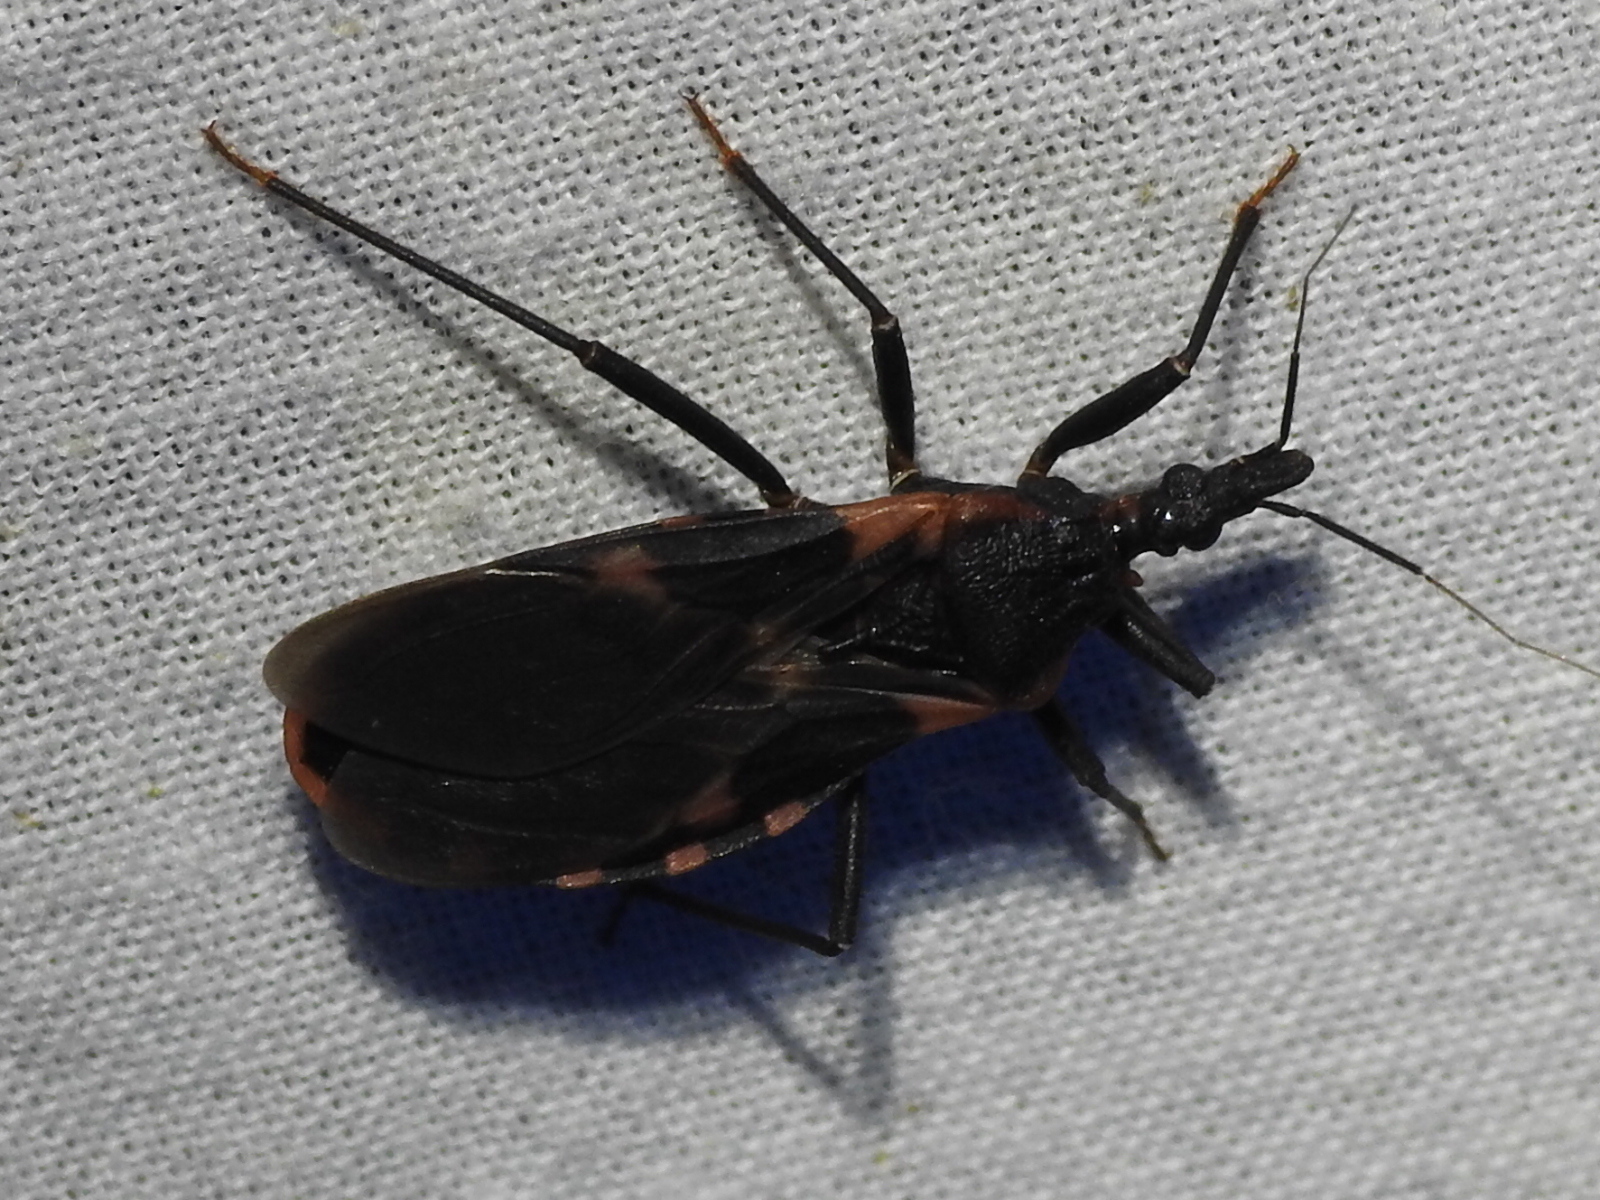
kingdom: Animalia
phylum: Arthropoda
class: Insecta
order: Hemiptera
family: Reduviidae
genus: Triatoma
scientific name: Triatoma sanguisuga
